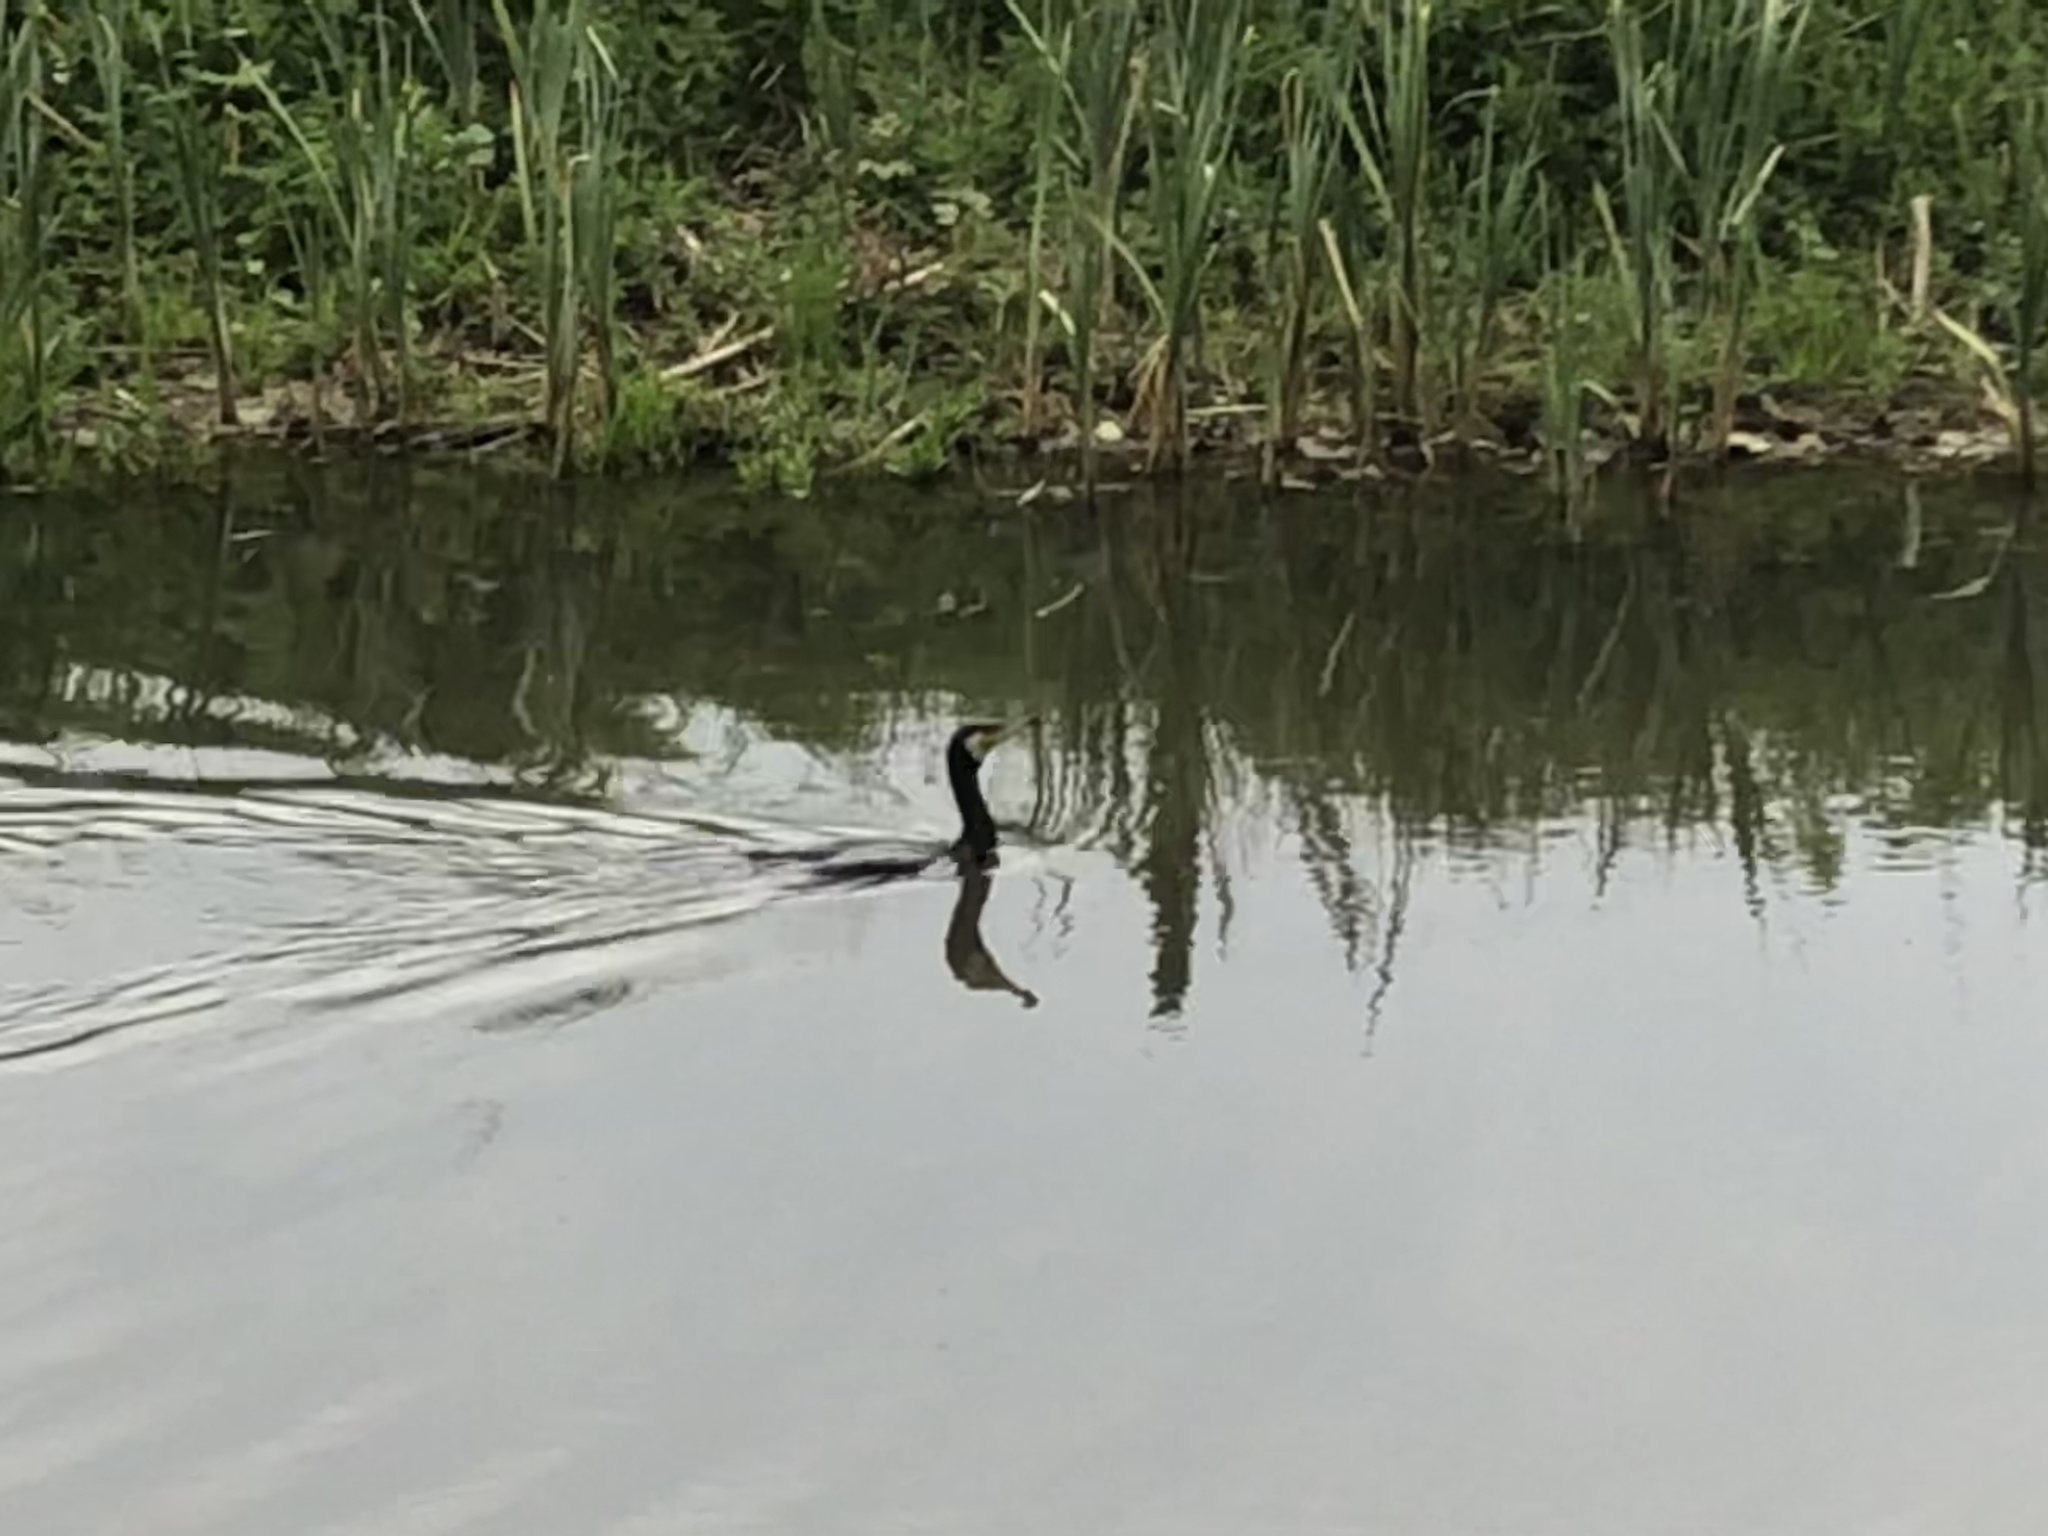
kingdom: Animalia
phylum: Chordata
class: Aves
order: Suliformes
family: Phalacrocoracidae
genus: Phalacrocorax
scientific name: Phalacrocorax carbo
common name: Great cormorant
